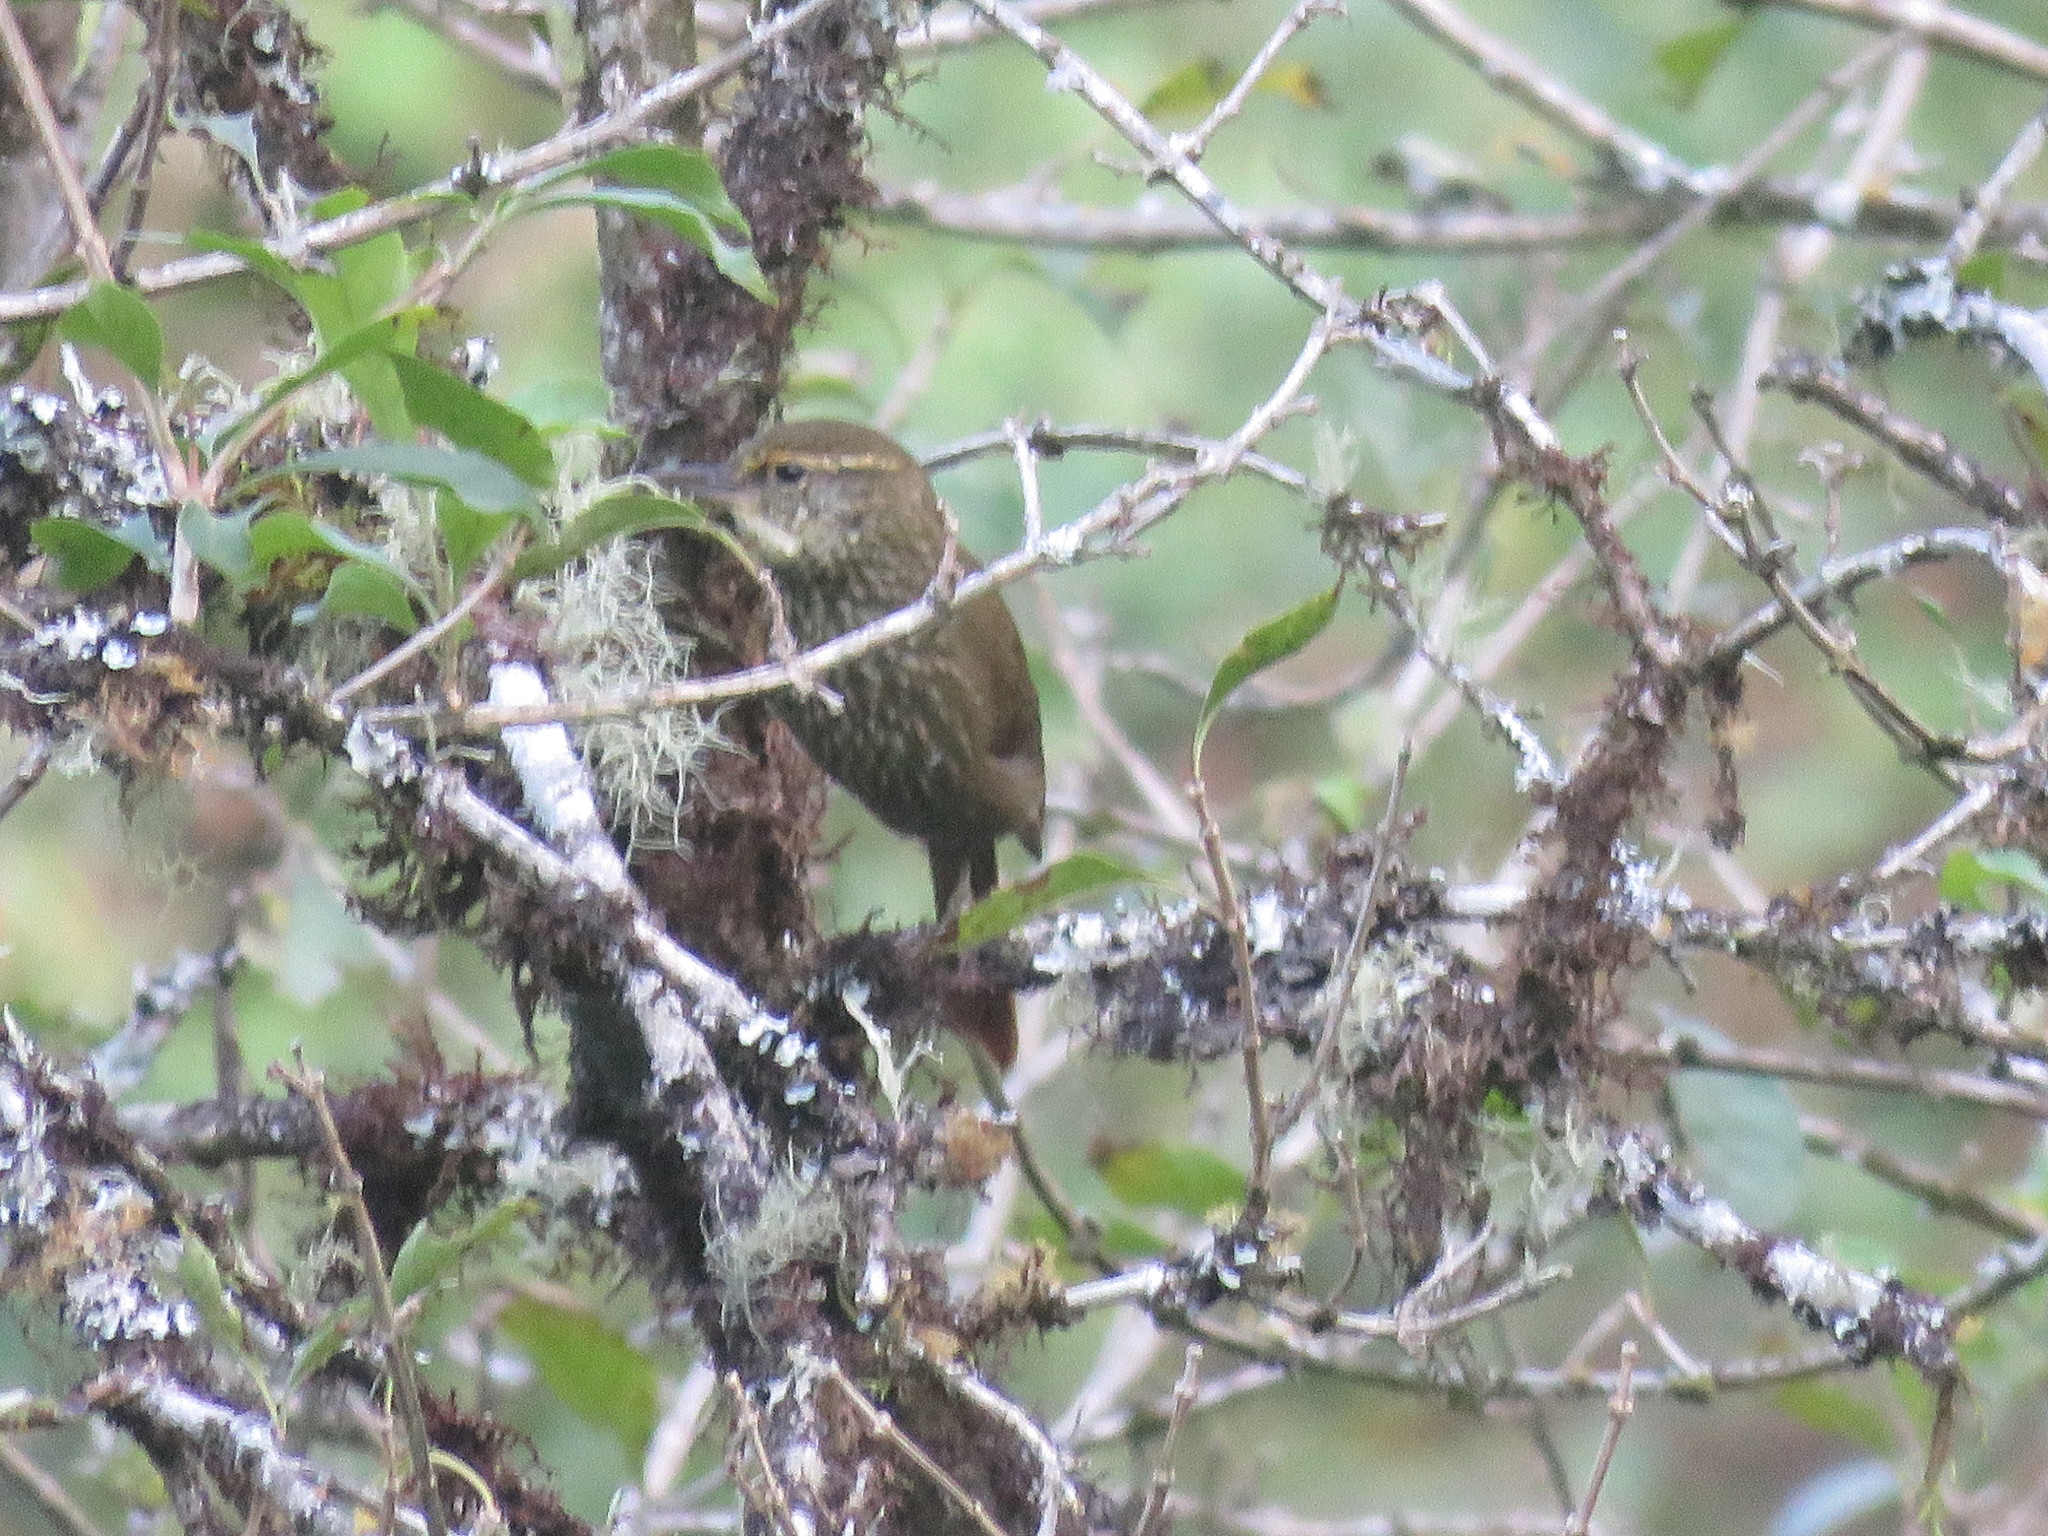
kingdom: Animalia
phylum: Chordata
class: Aves
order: Passeriformes
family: Furnariidae
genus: Syndactyla
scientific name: Syndactyla rufosuperciliata
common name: Buff-browed foliage-gleaner
